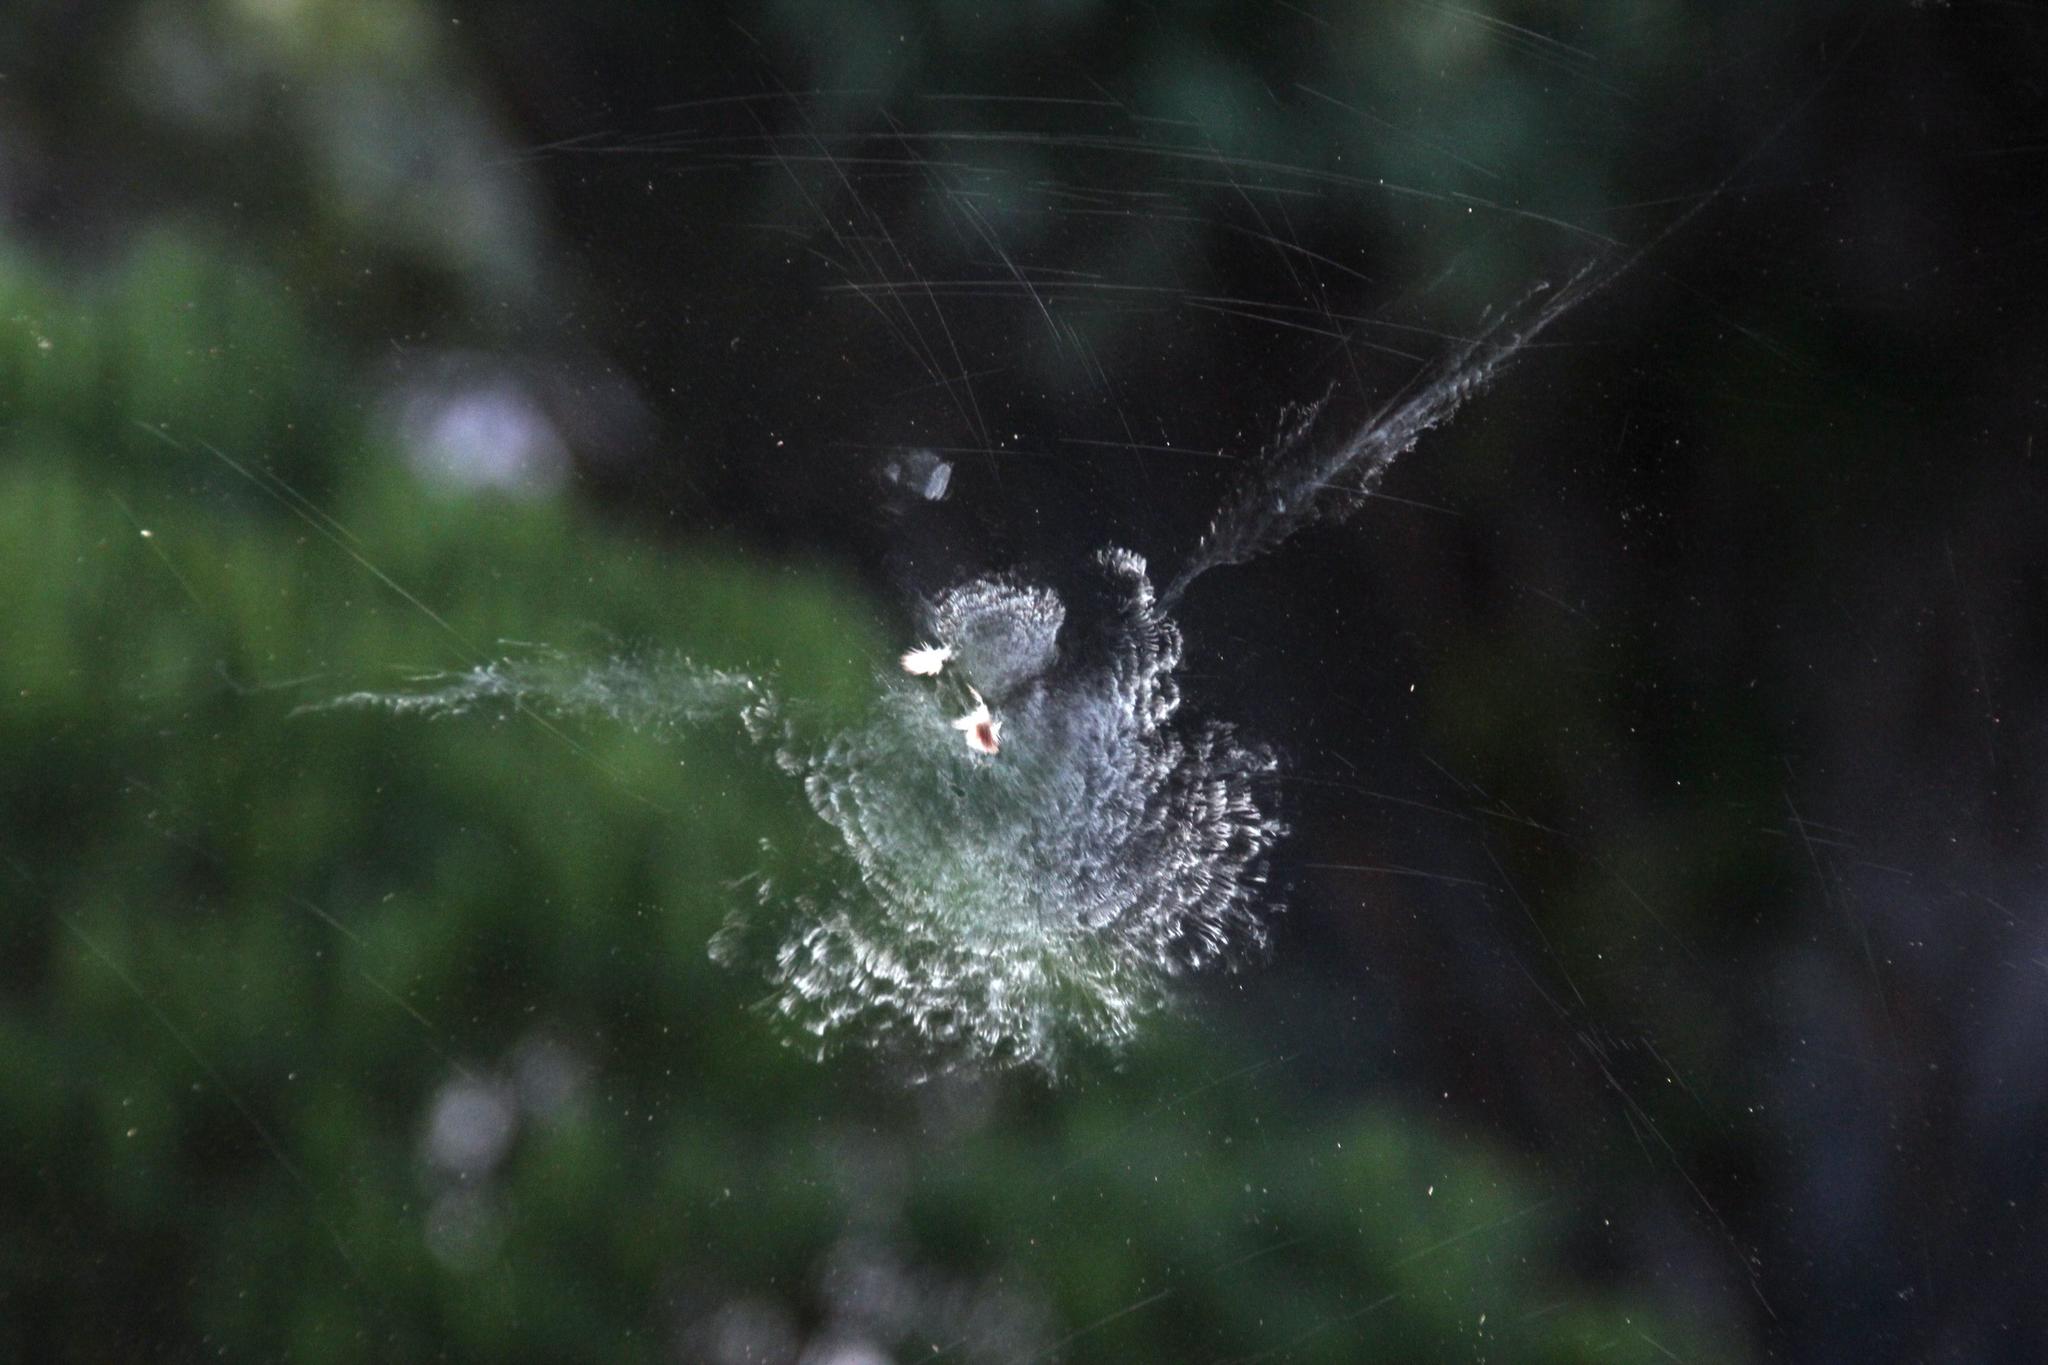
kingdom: Animalia
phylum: Chordata
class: Aves
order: Columbiformes
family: Columbidae
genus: Streptopelia
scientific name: Streptopelia semitorquata
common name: Red-eyed dove
